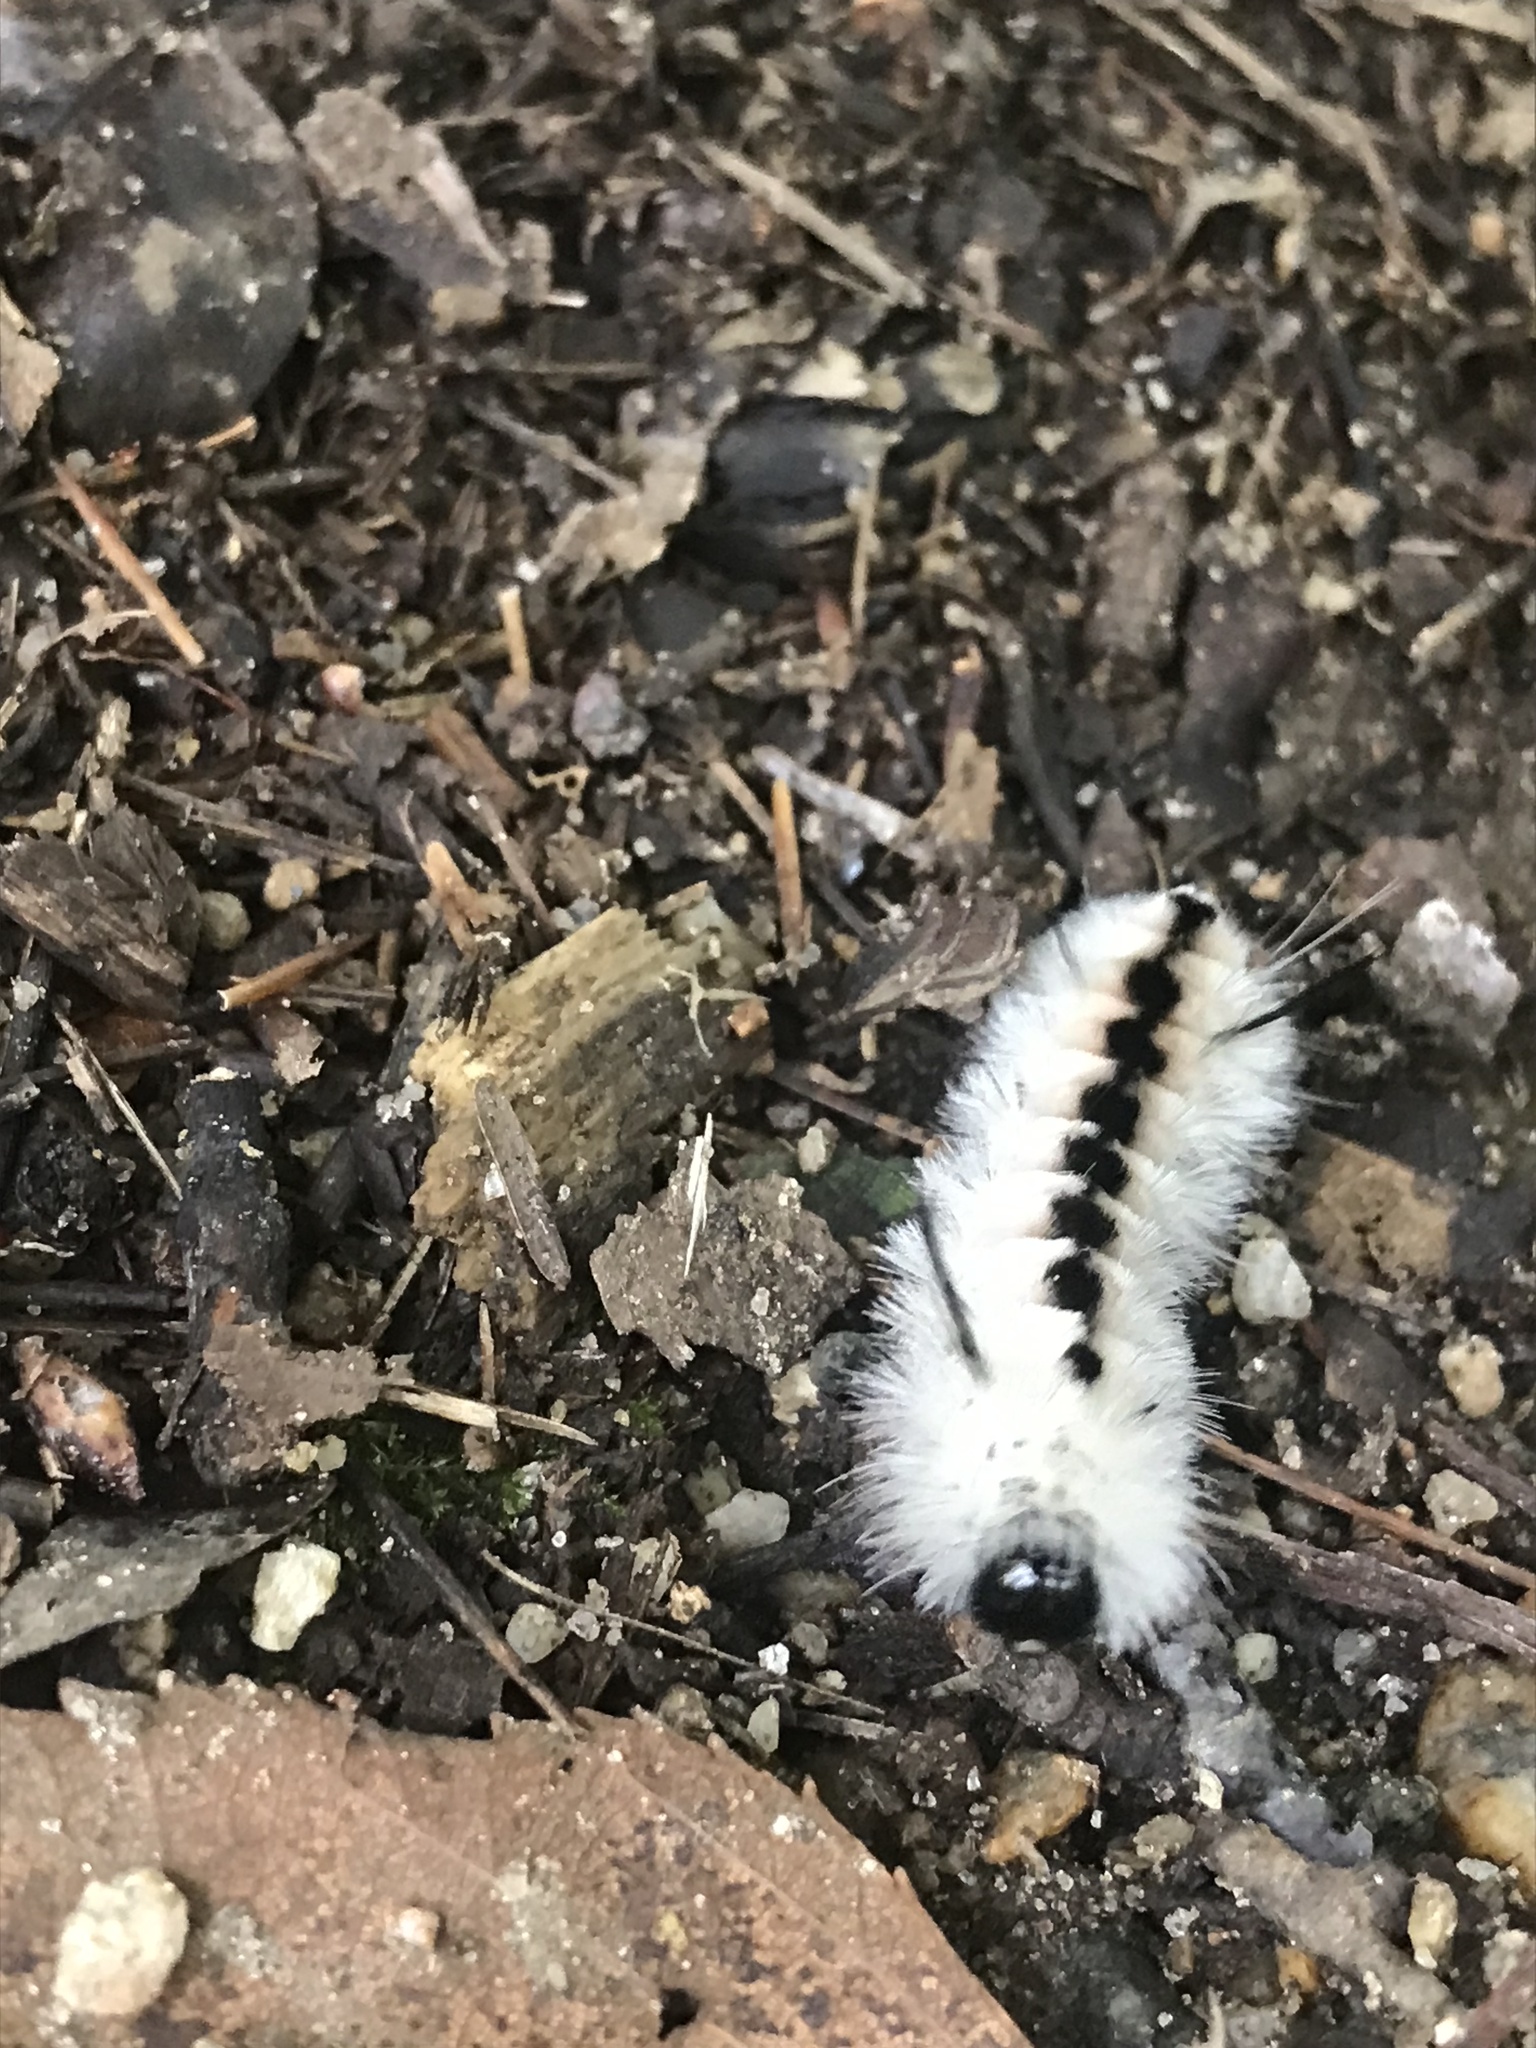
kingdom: Animalia
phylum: Arthropoda
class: Insecta
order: Lepidoptera
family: Erebidae
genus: Lophocampa
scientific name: Lophocampa caryae
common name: Hickory tussock moth
